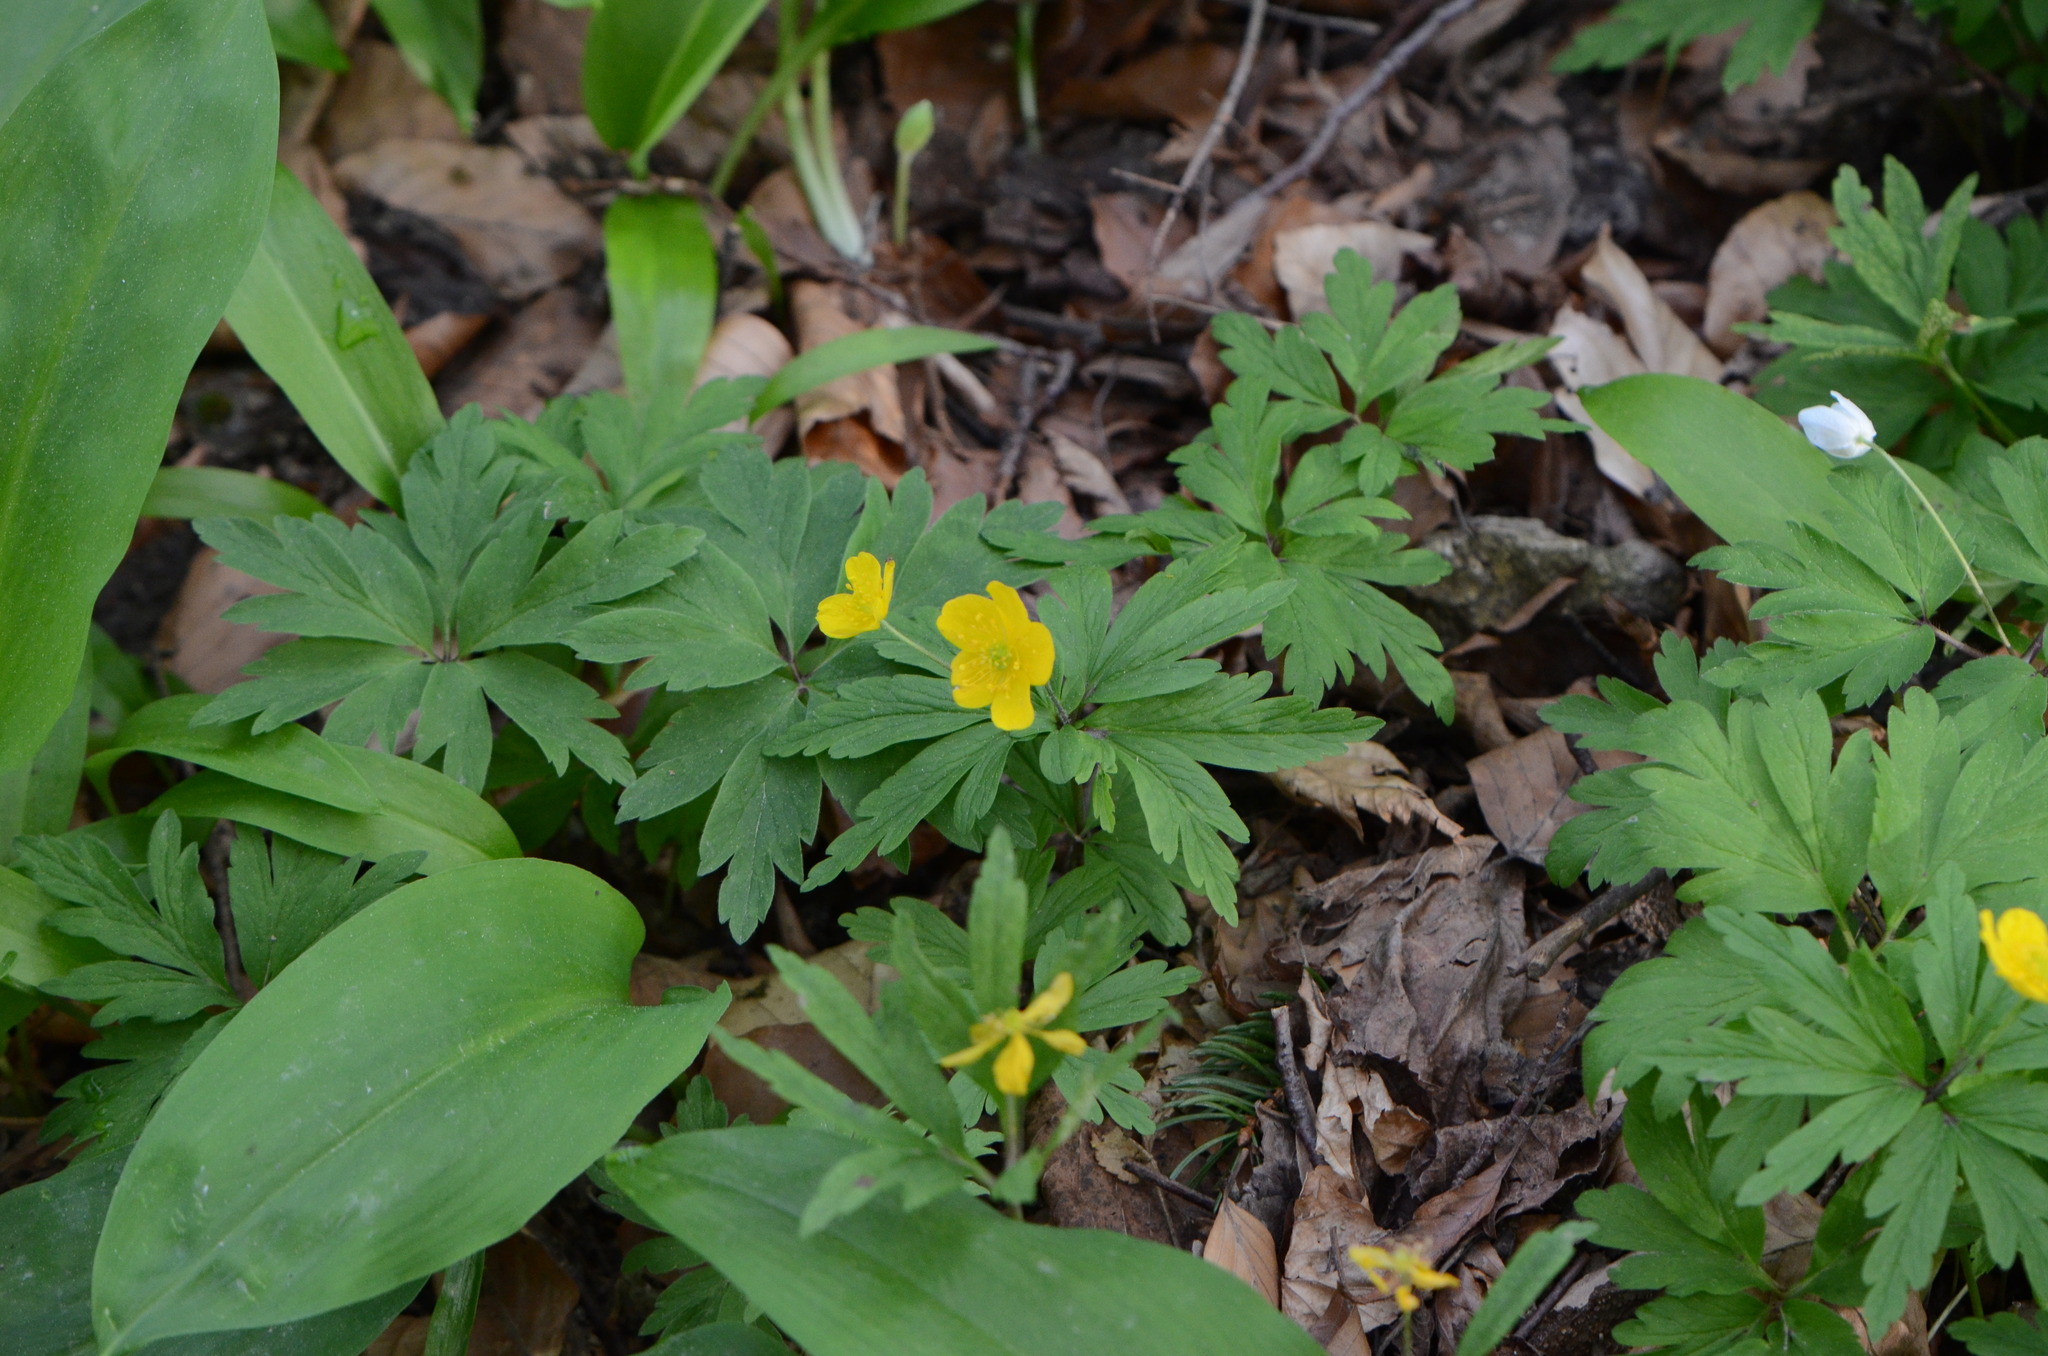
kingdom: Plantae
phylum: Tracheophyta
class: Magnoliopsida
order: Ranunculales
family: Ranunculaceae
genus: Anemone
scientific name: Anemone ranunculoides
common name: Yellow anemone
